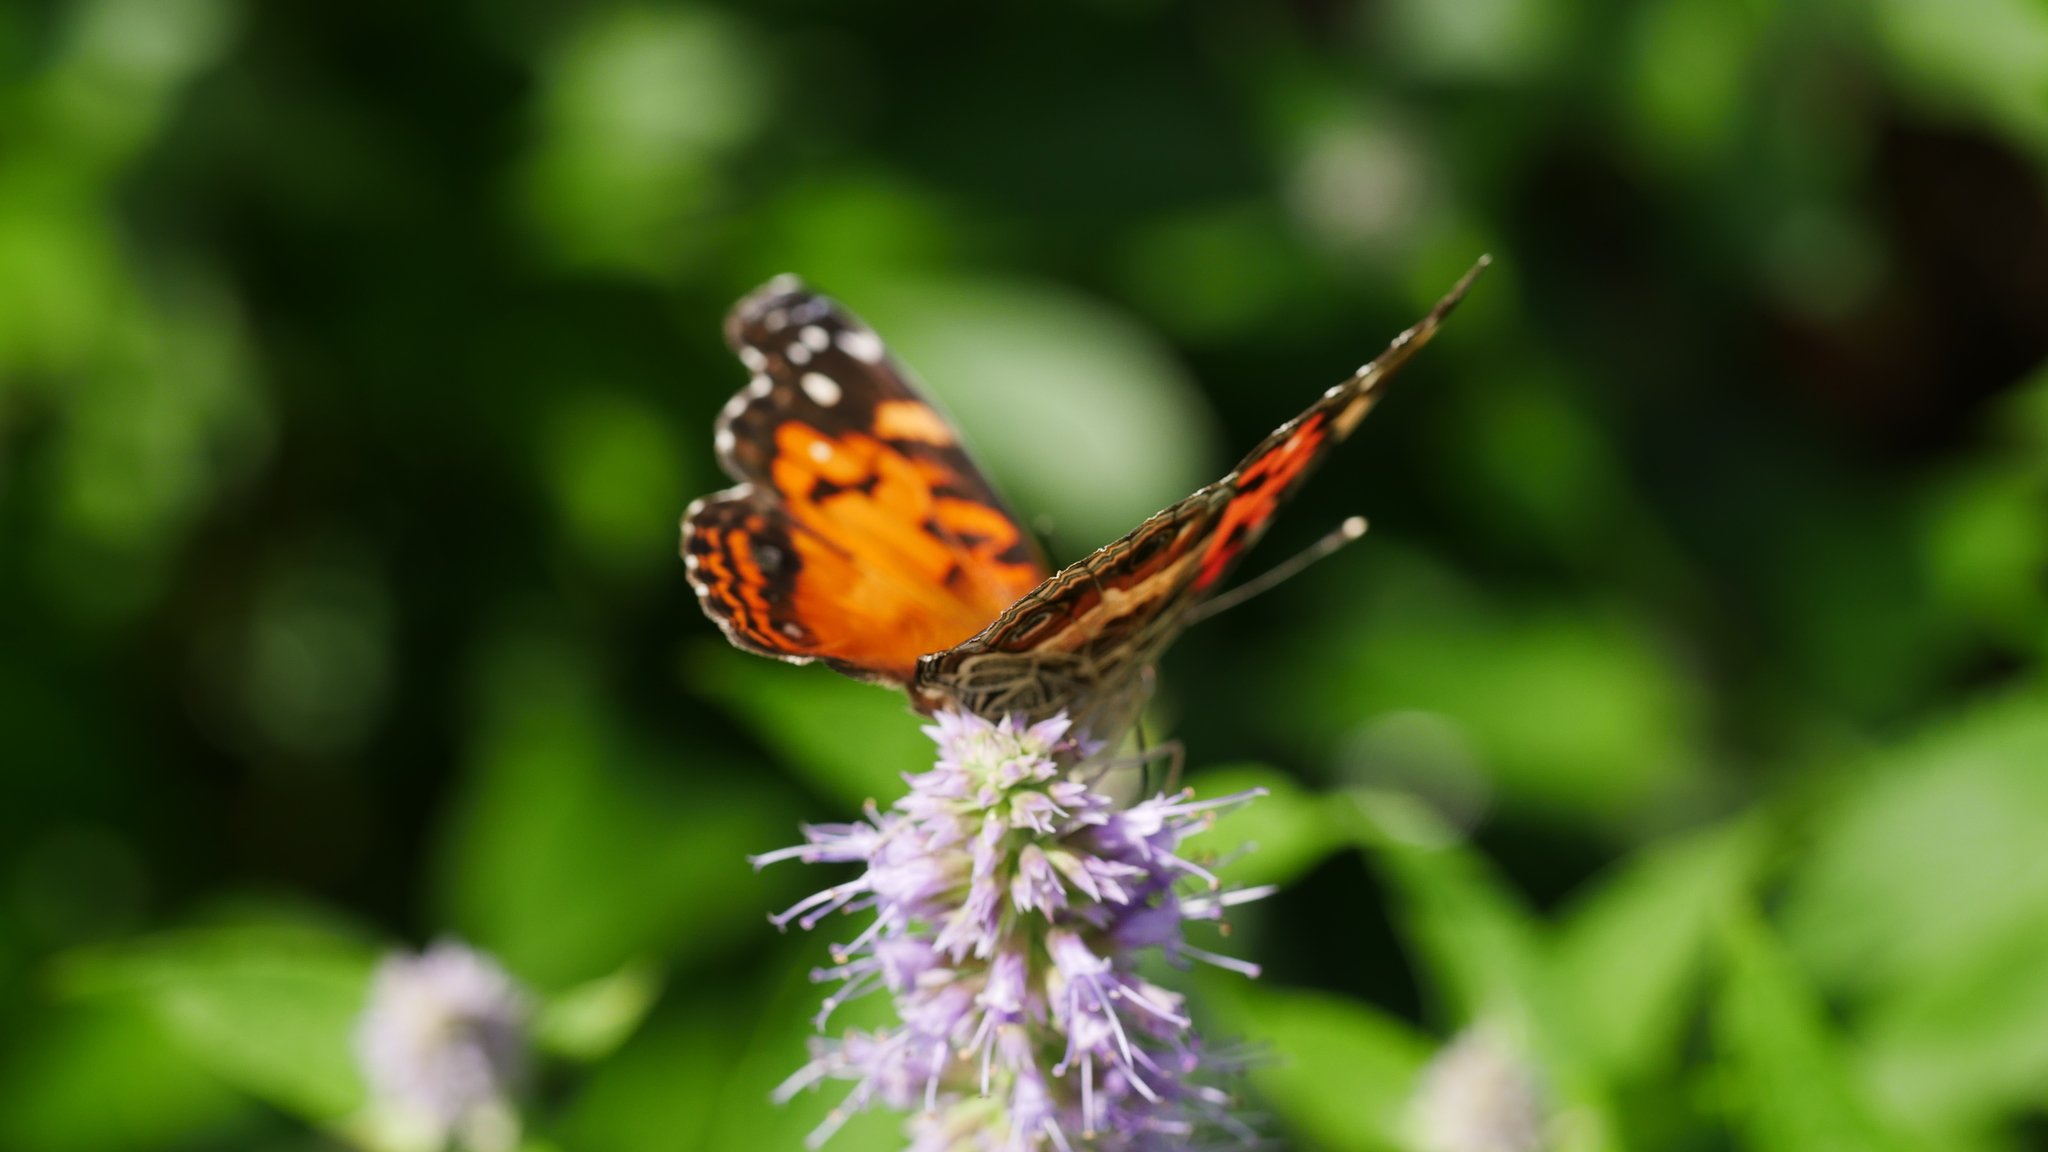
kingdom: Animalia
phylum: Arthropoda
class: Insecta
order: Lepidoptera
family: Nymphalidae
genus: Vanessa
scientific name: Vanessa virginiensis
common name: American lady
